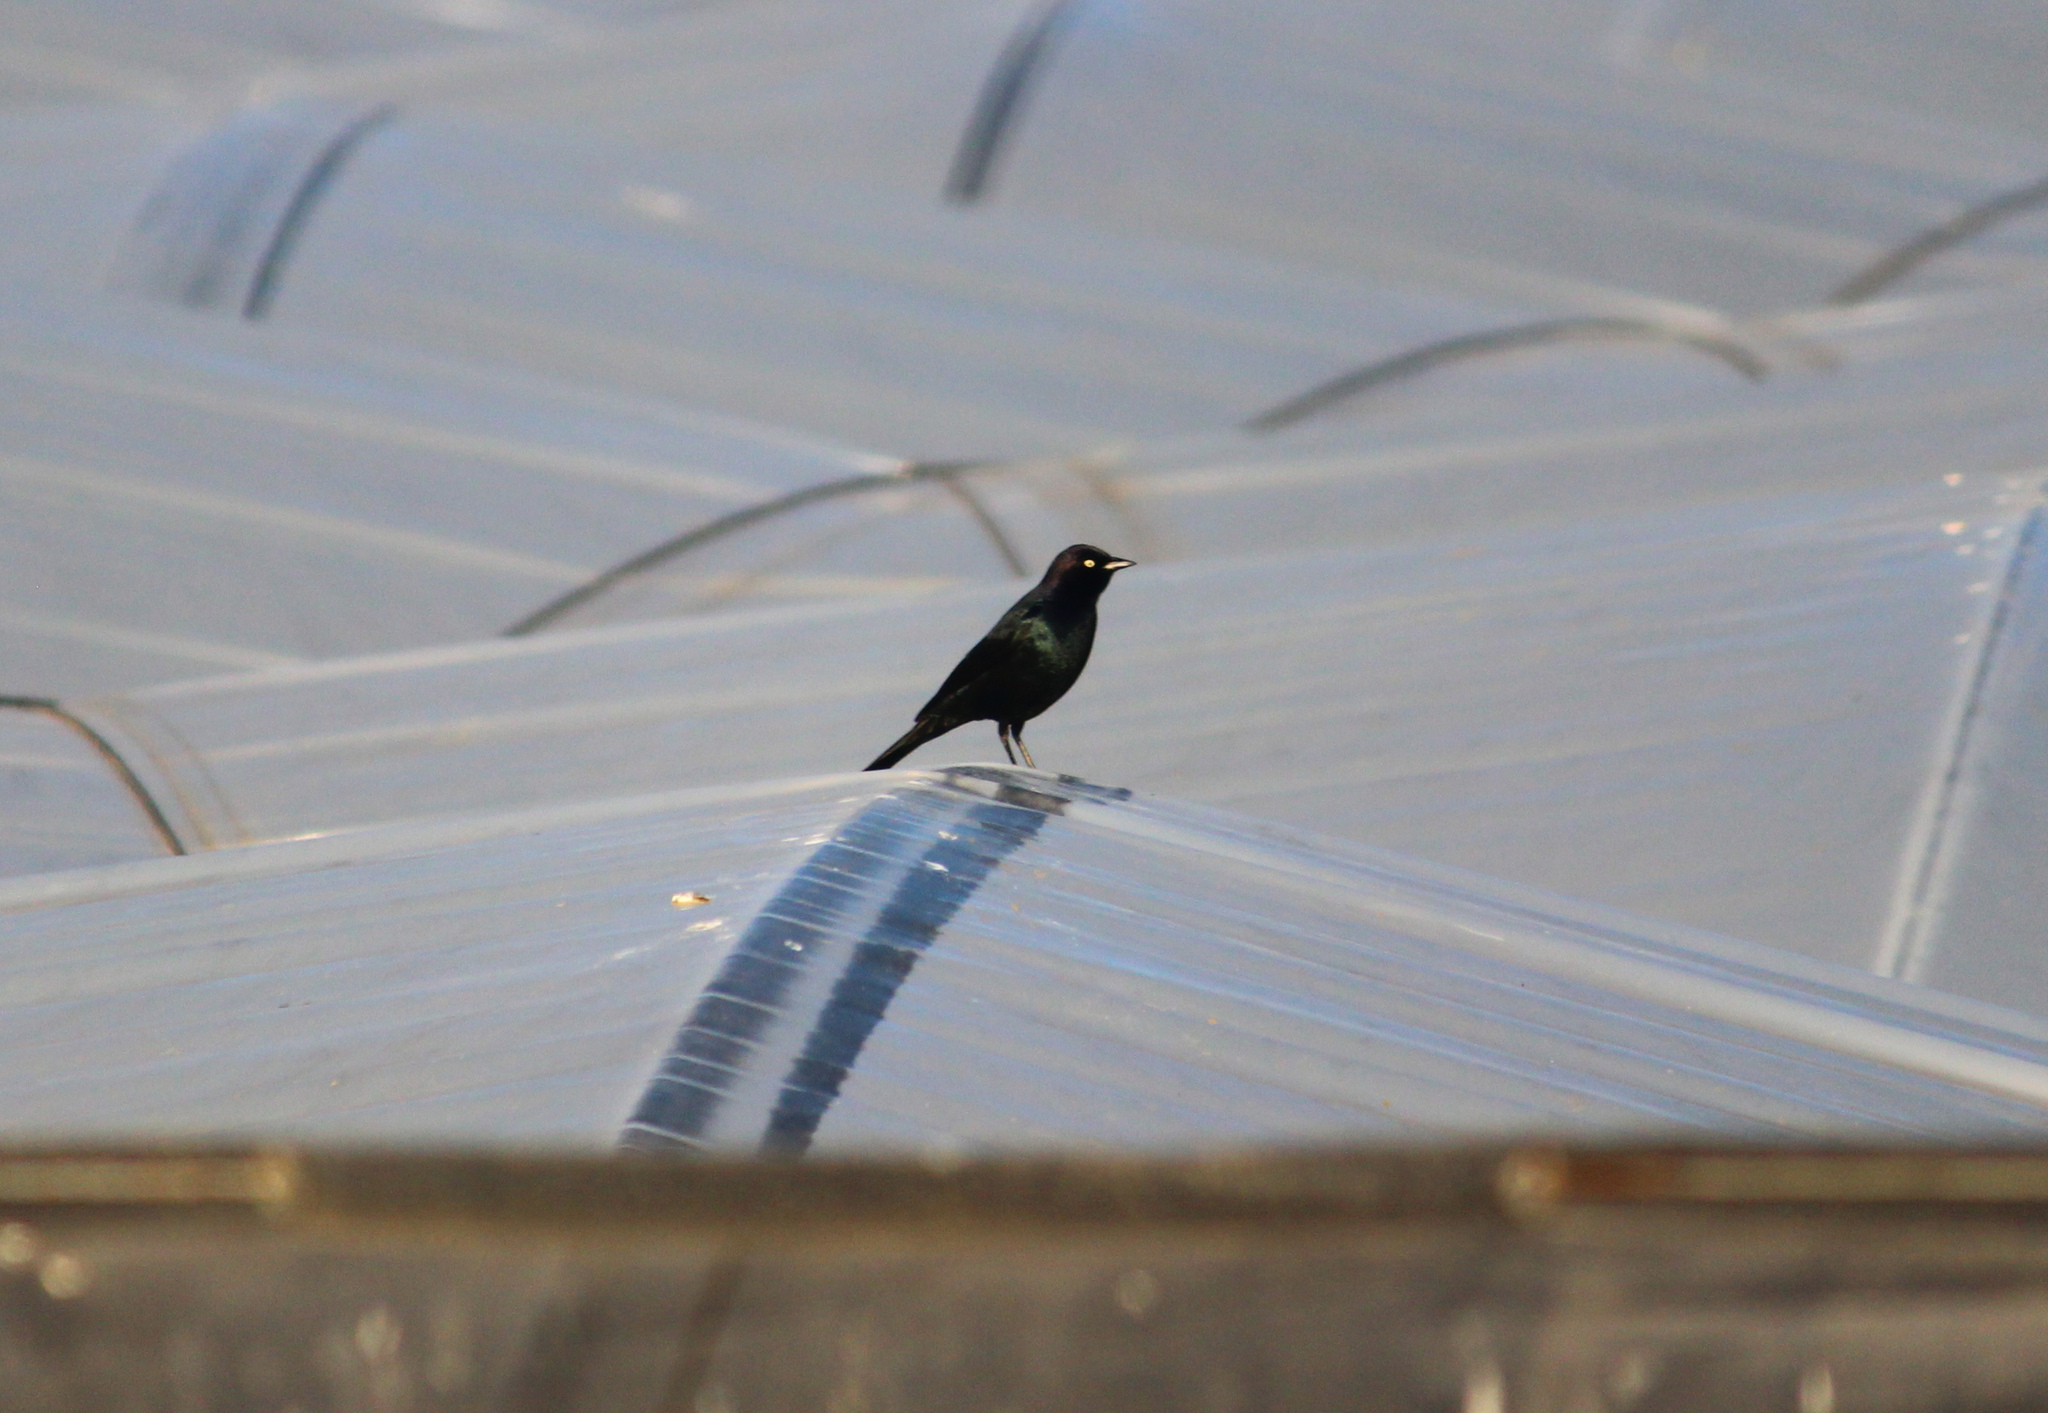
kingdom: Animalia
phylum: Chordata
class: Aves
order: Passeriformes
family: Icteridae
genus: Euphagus
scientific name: Euphagus cyanocephalus
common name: Brewer's blackbird
